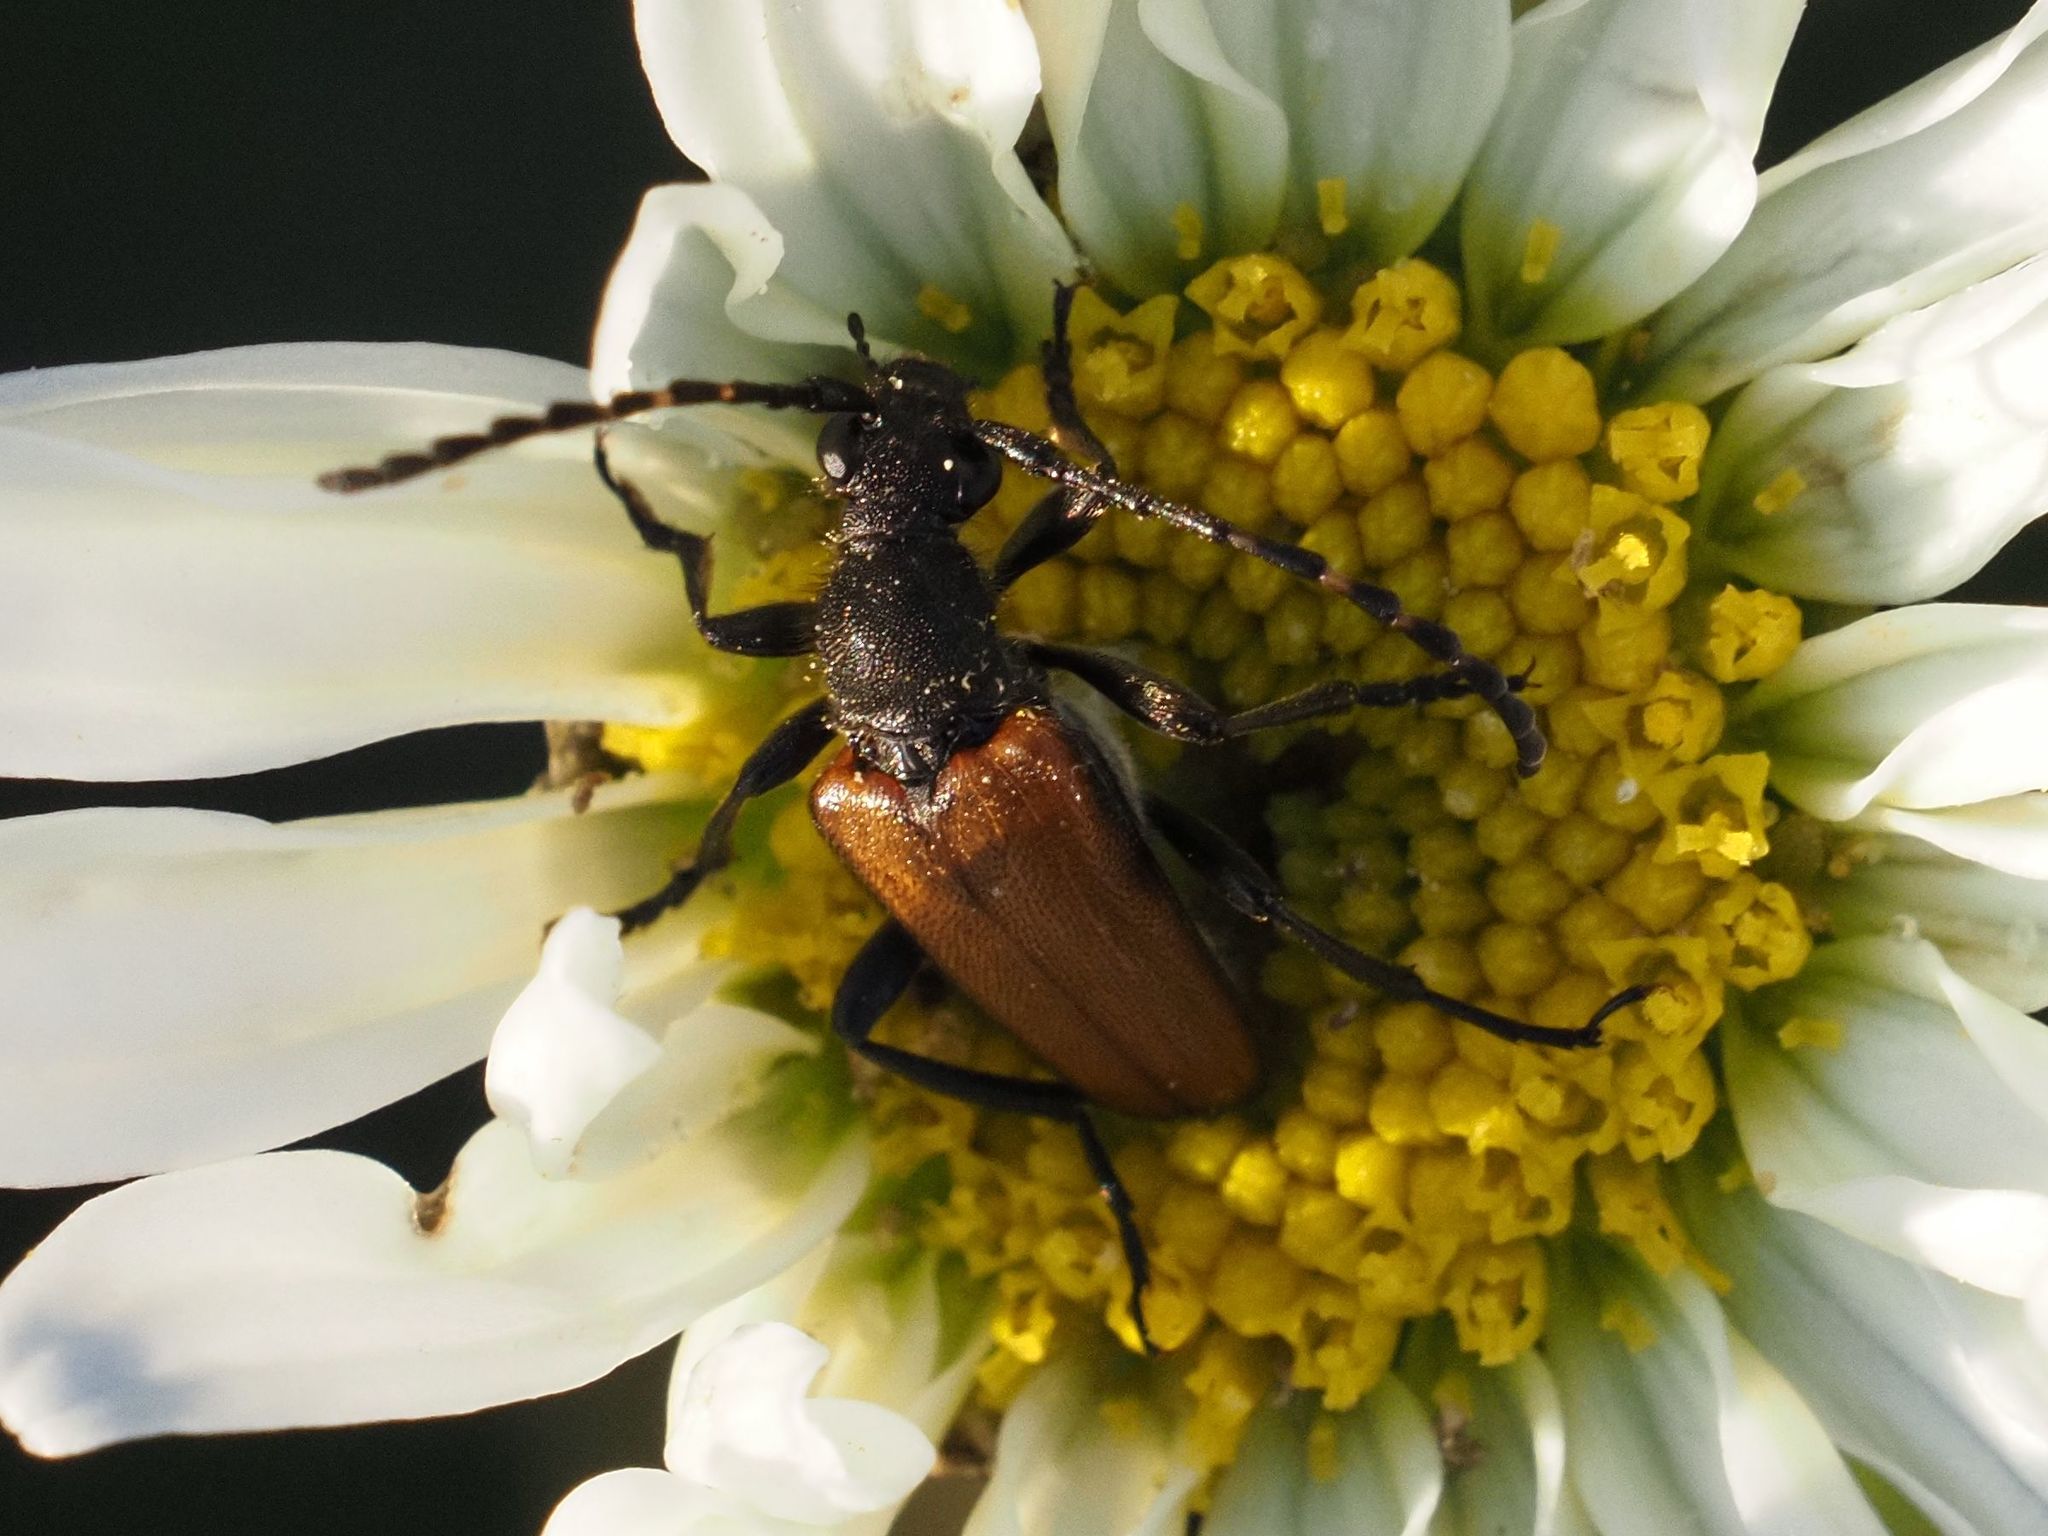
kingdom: Animalia
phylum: Arthropoda
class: Insecta
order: Coleoptera
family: Cerambycidae
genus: Paracorymbia
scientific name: Paracorymbia maculicornis
